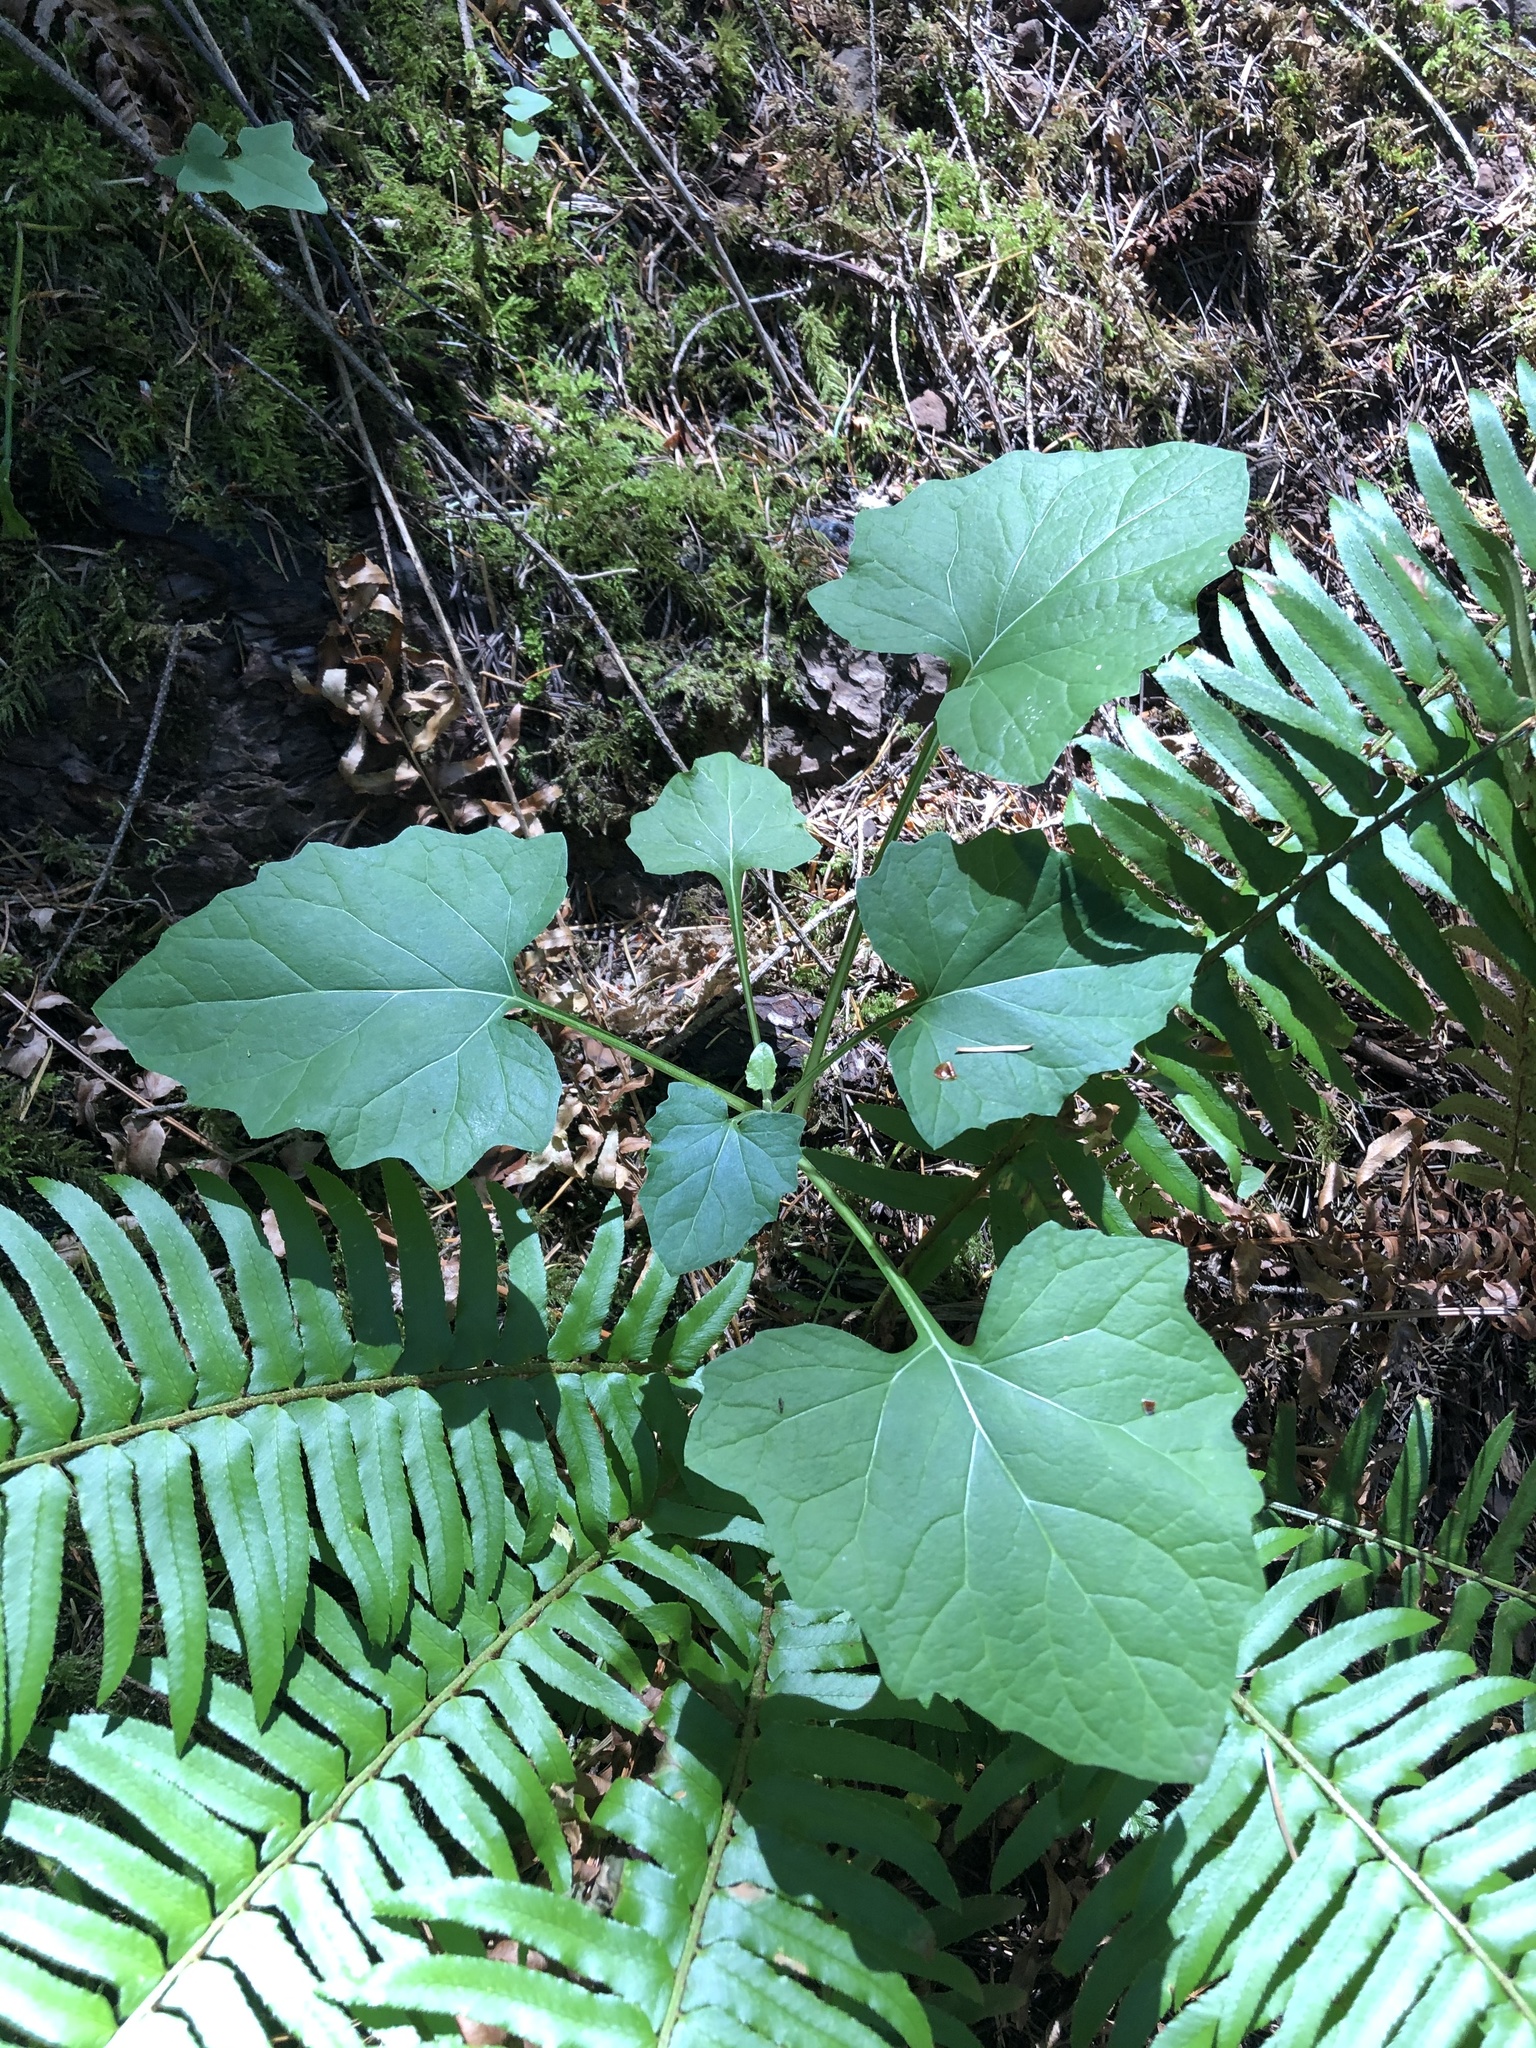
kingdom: Plantae
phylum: Tracheophyta
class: Magnoliopsida
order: Asterales
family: Asteraceae
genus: Adenocaulon
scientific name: Adenocaulon bicolor
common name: Trailplant
